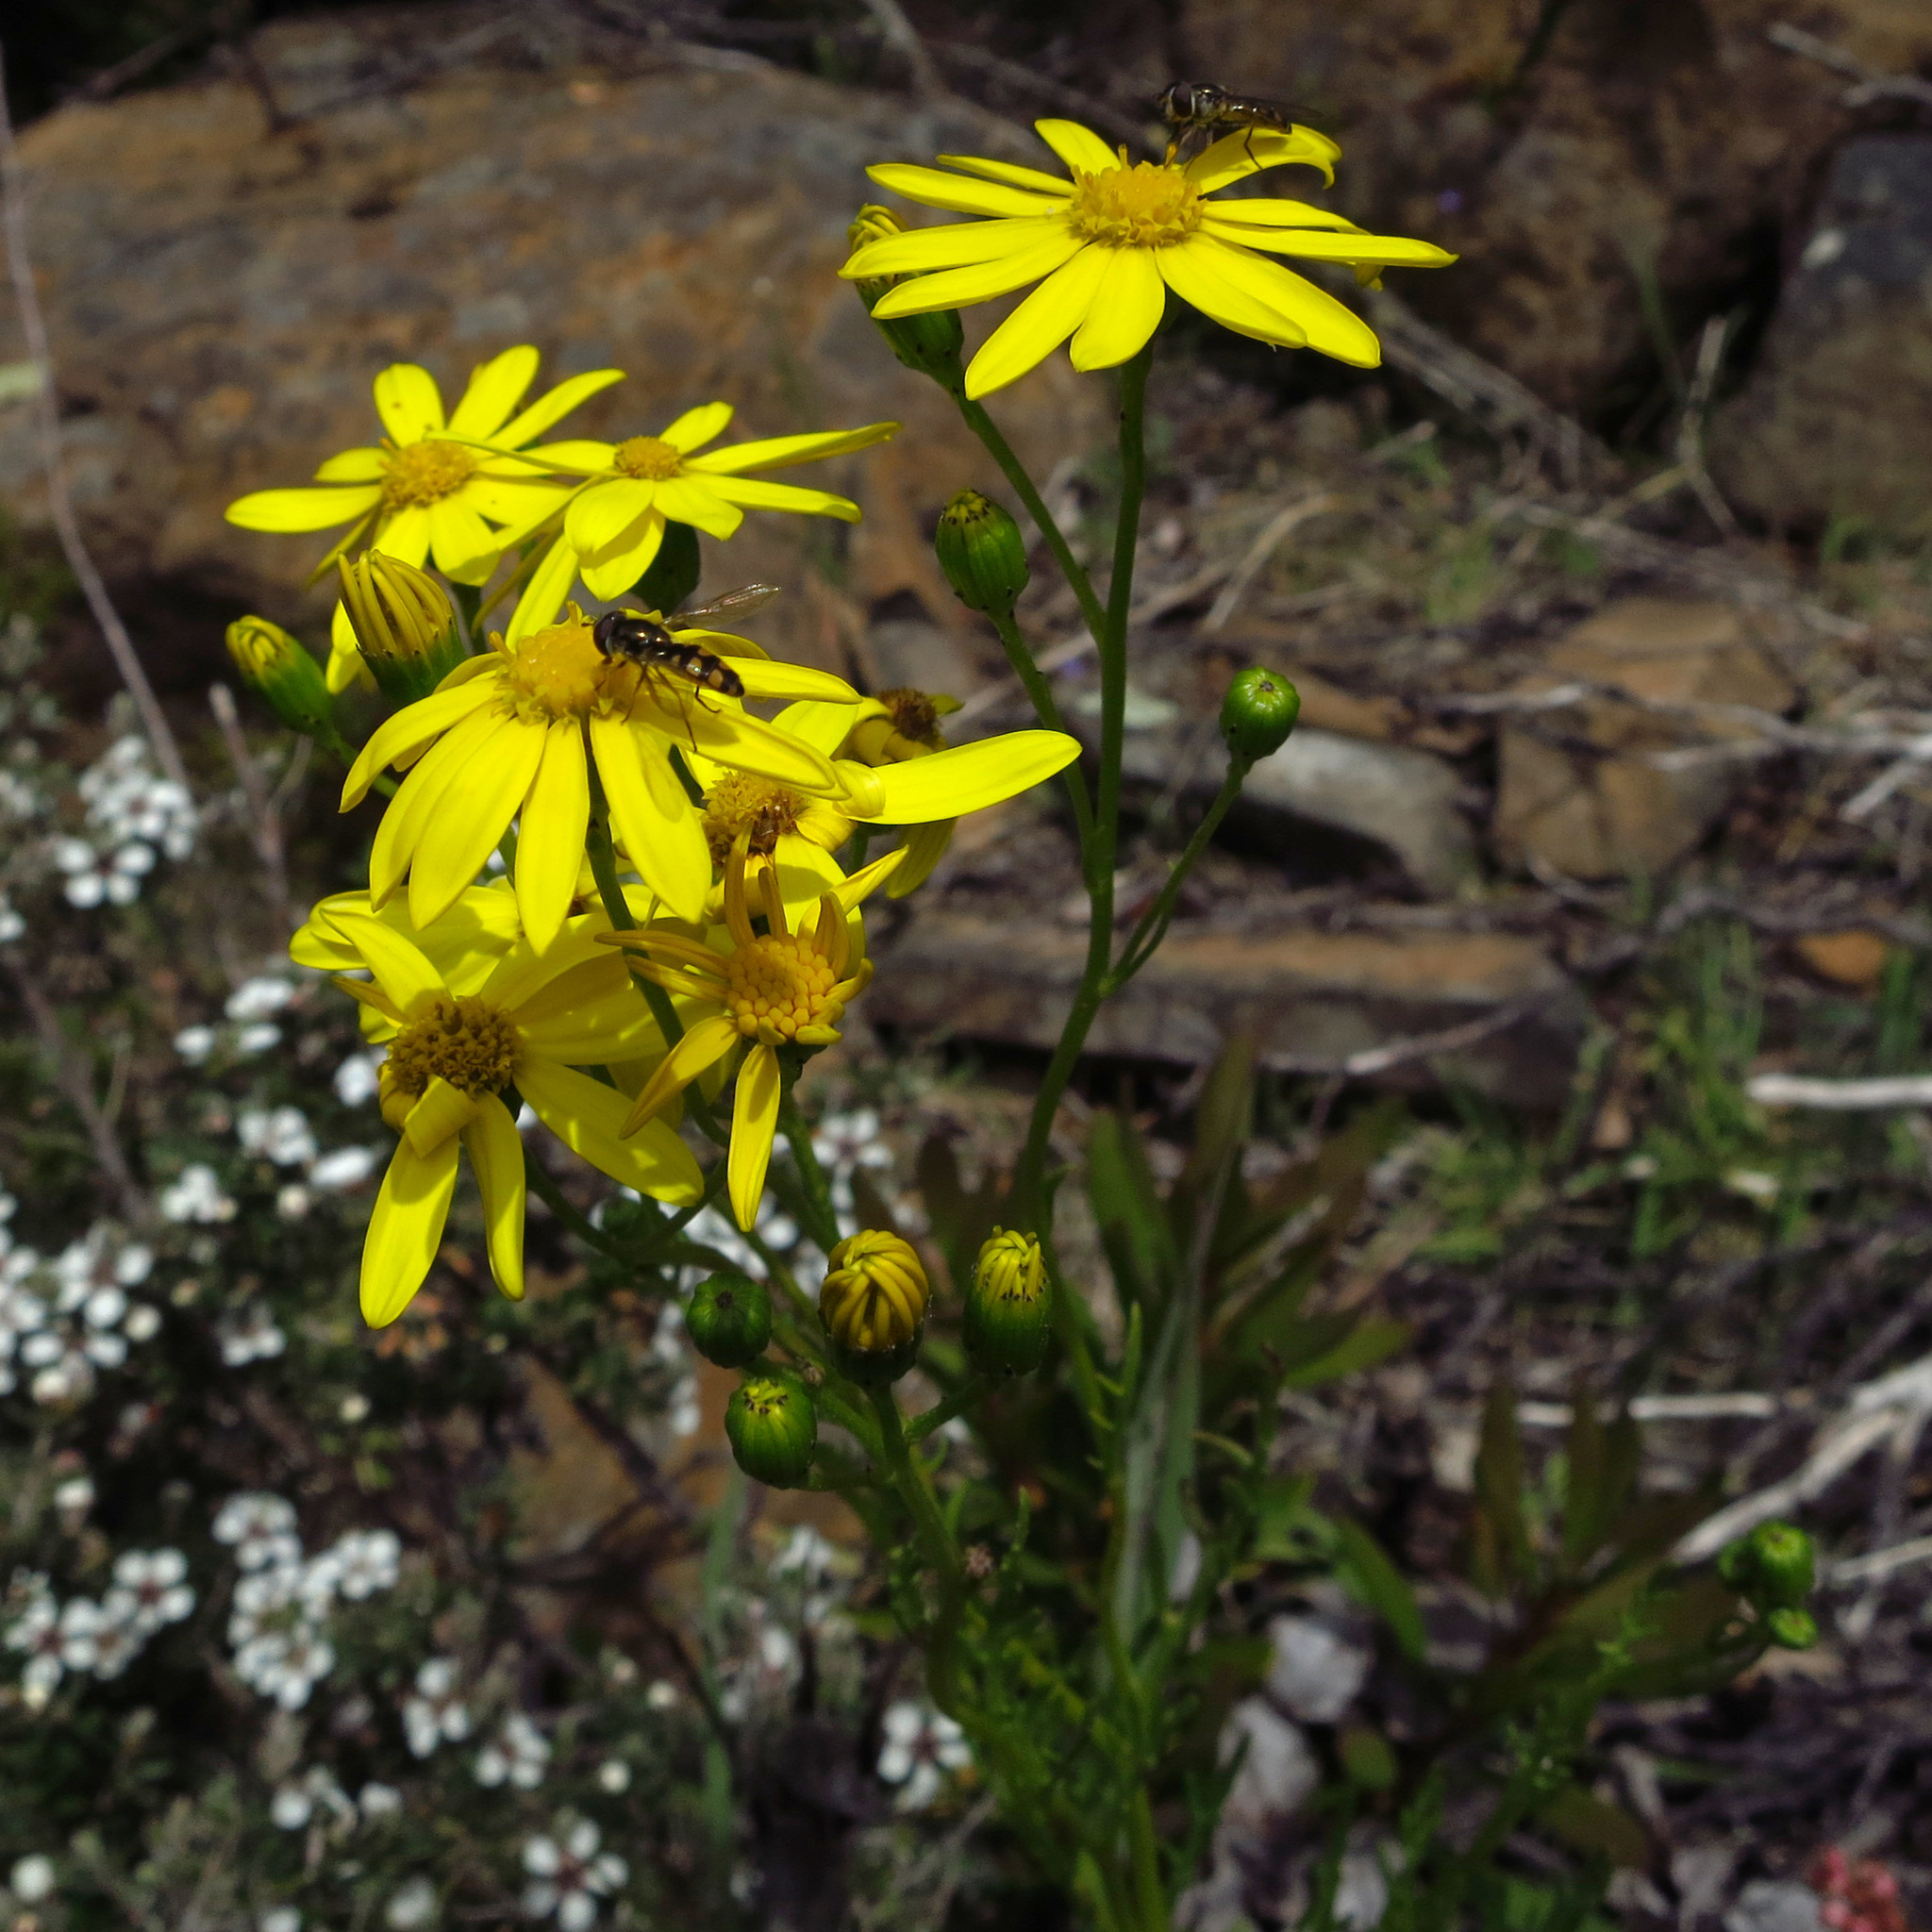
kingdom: Plantae
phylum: Tracheophyta
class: Magnoliopsida
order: Asterales
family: Asteraceae
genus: Senecio
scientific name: Senecio pinnatifolius
